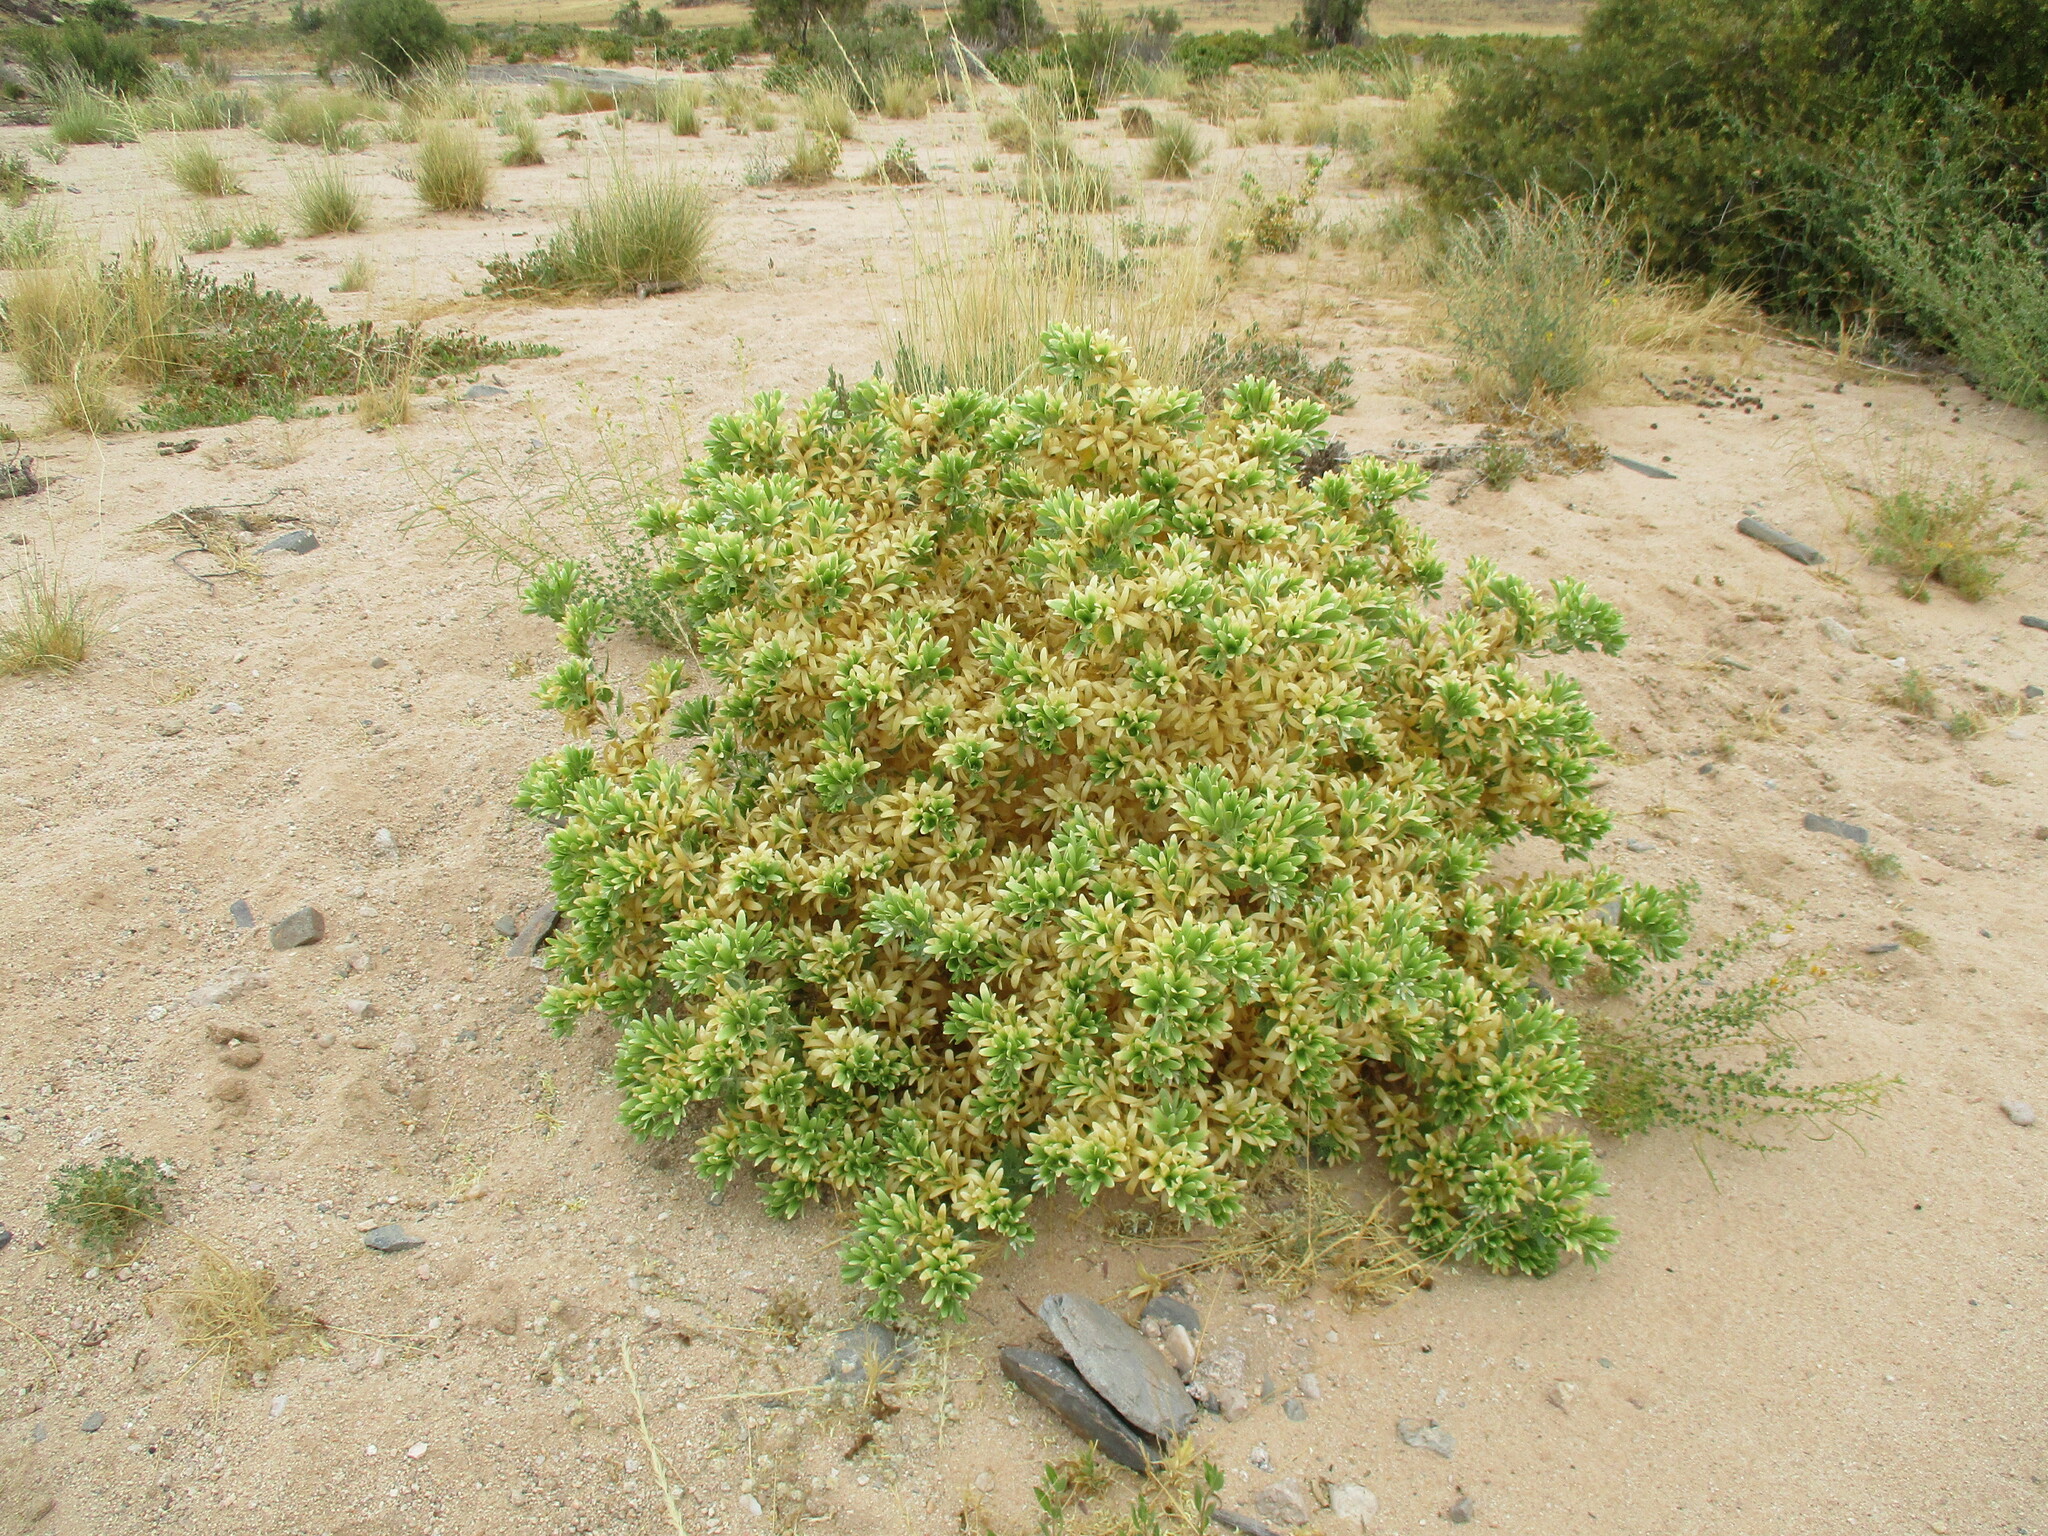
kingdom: Plantae
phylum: Tracheophyta
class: Magnoliopsida
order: Cornales
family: Loasaceae
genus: Kissenia
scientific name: Kissenia capensis
